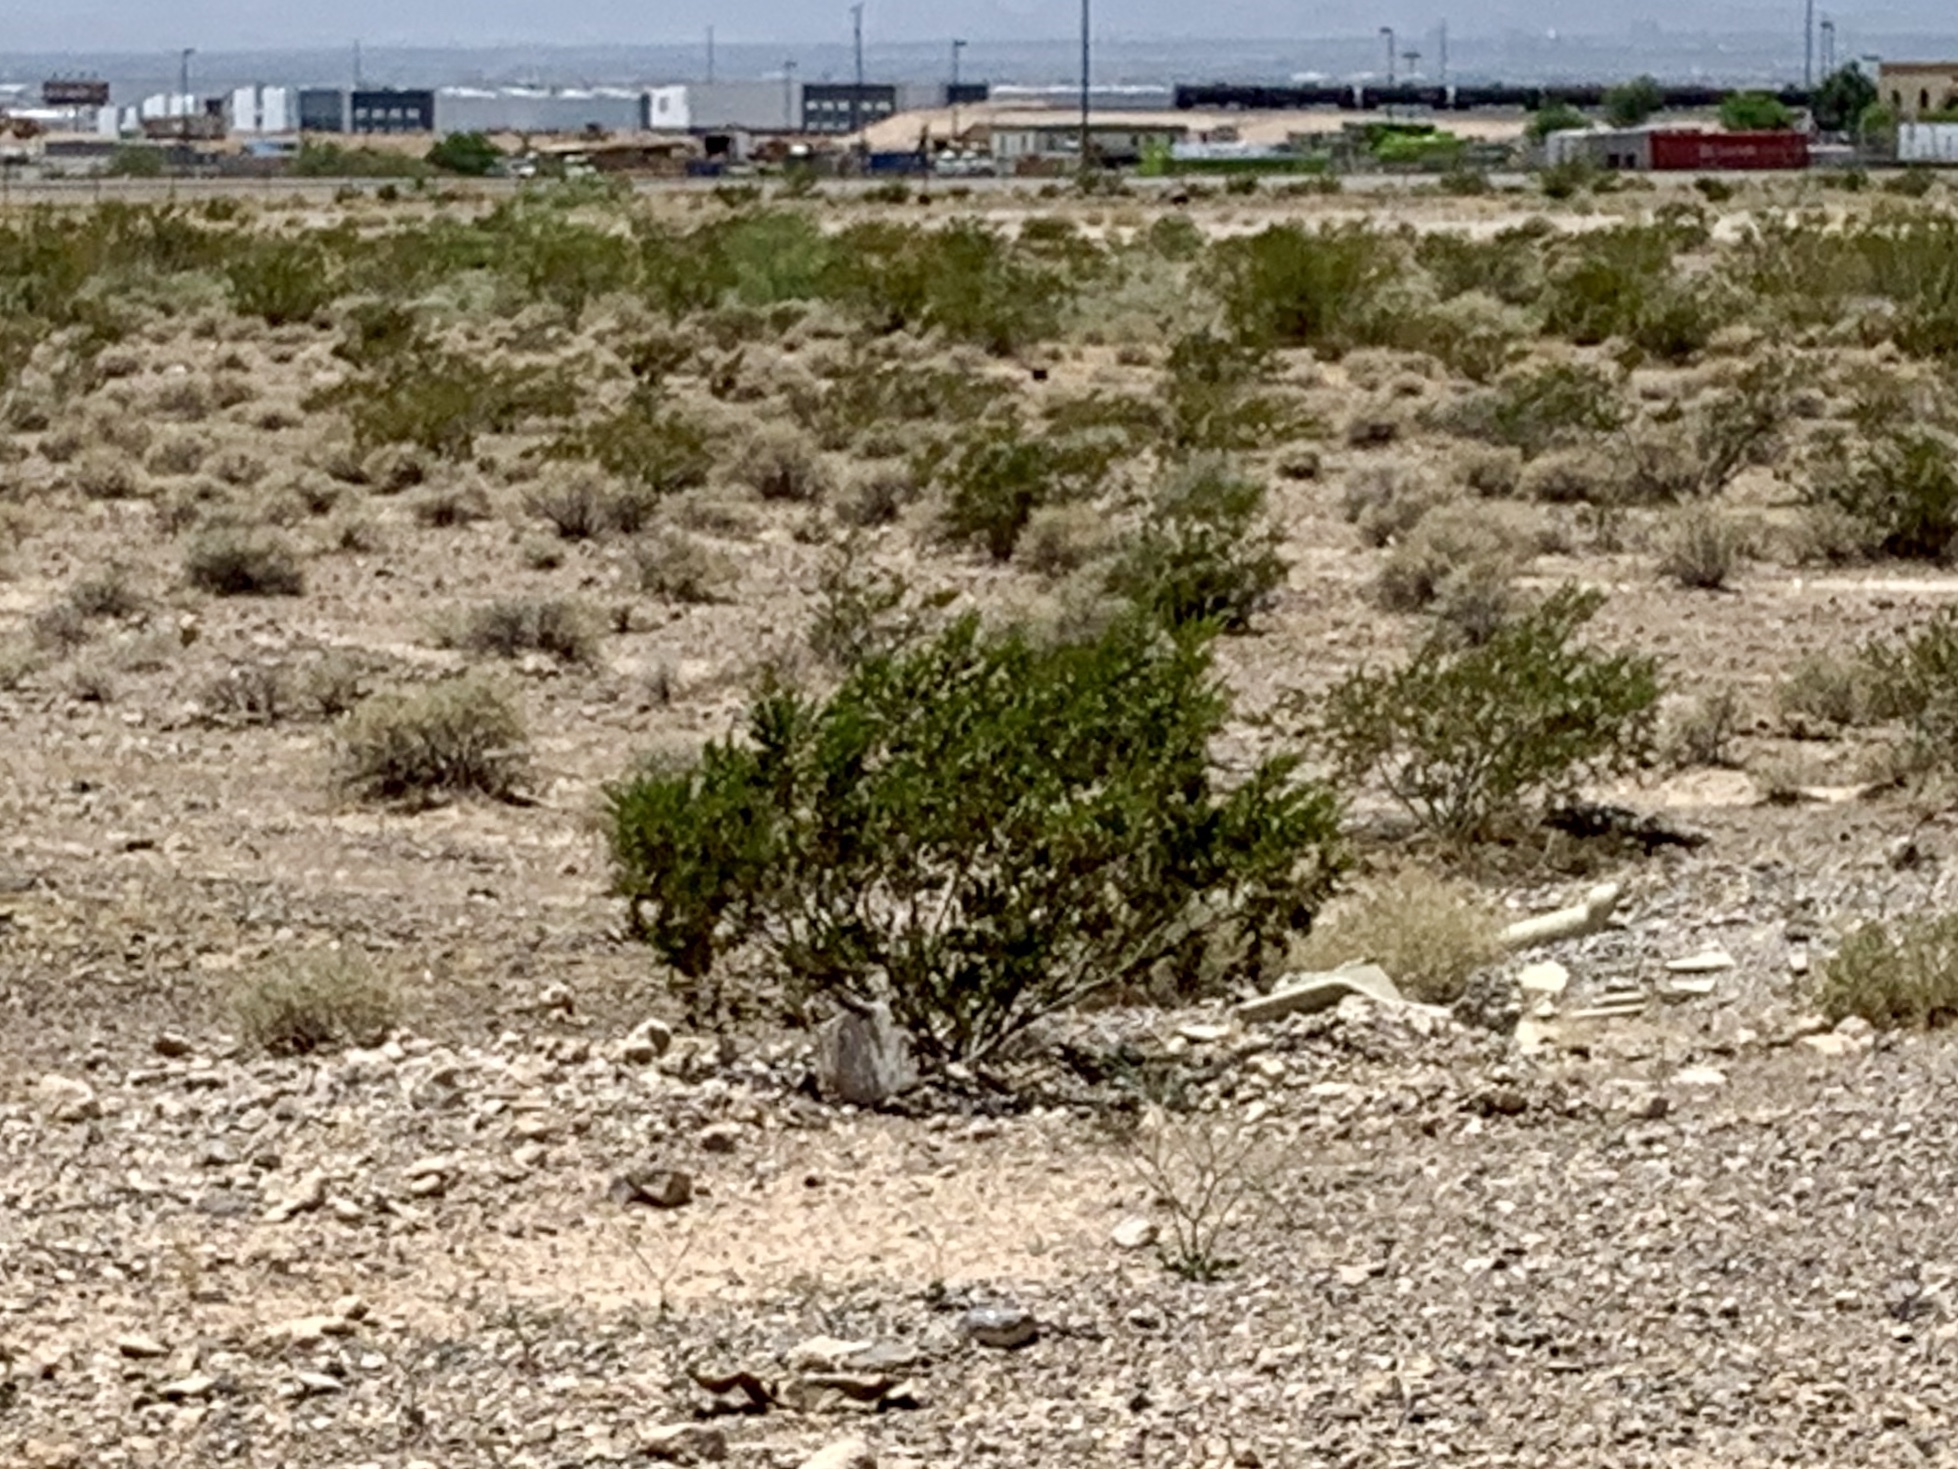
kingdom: Plantae
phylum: Tracheophyta
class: Magnoliopsida
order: Zygophyllales
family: Zygophyllaceae
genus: Larrea
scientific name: Larrea tridentata
